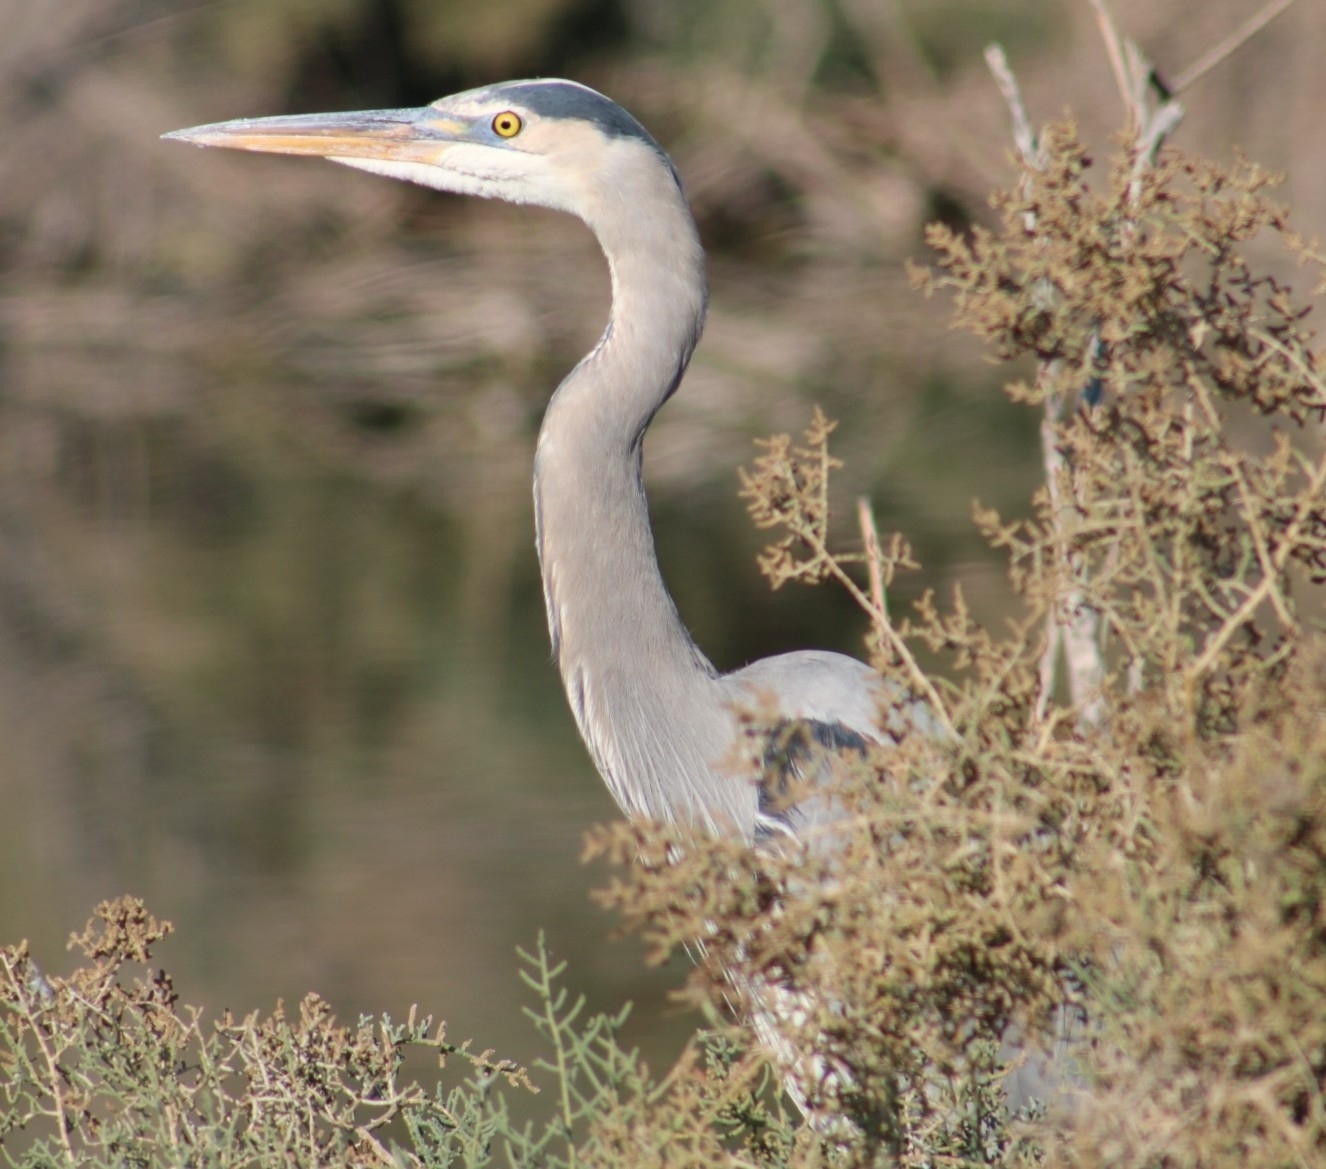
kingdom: Animalia
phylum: Chordata
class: Aves
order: Pelecaniformes
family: Ardeidae
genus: Ardea
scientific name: Ardea herodias
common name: Great blue heron
